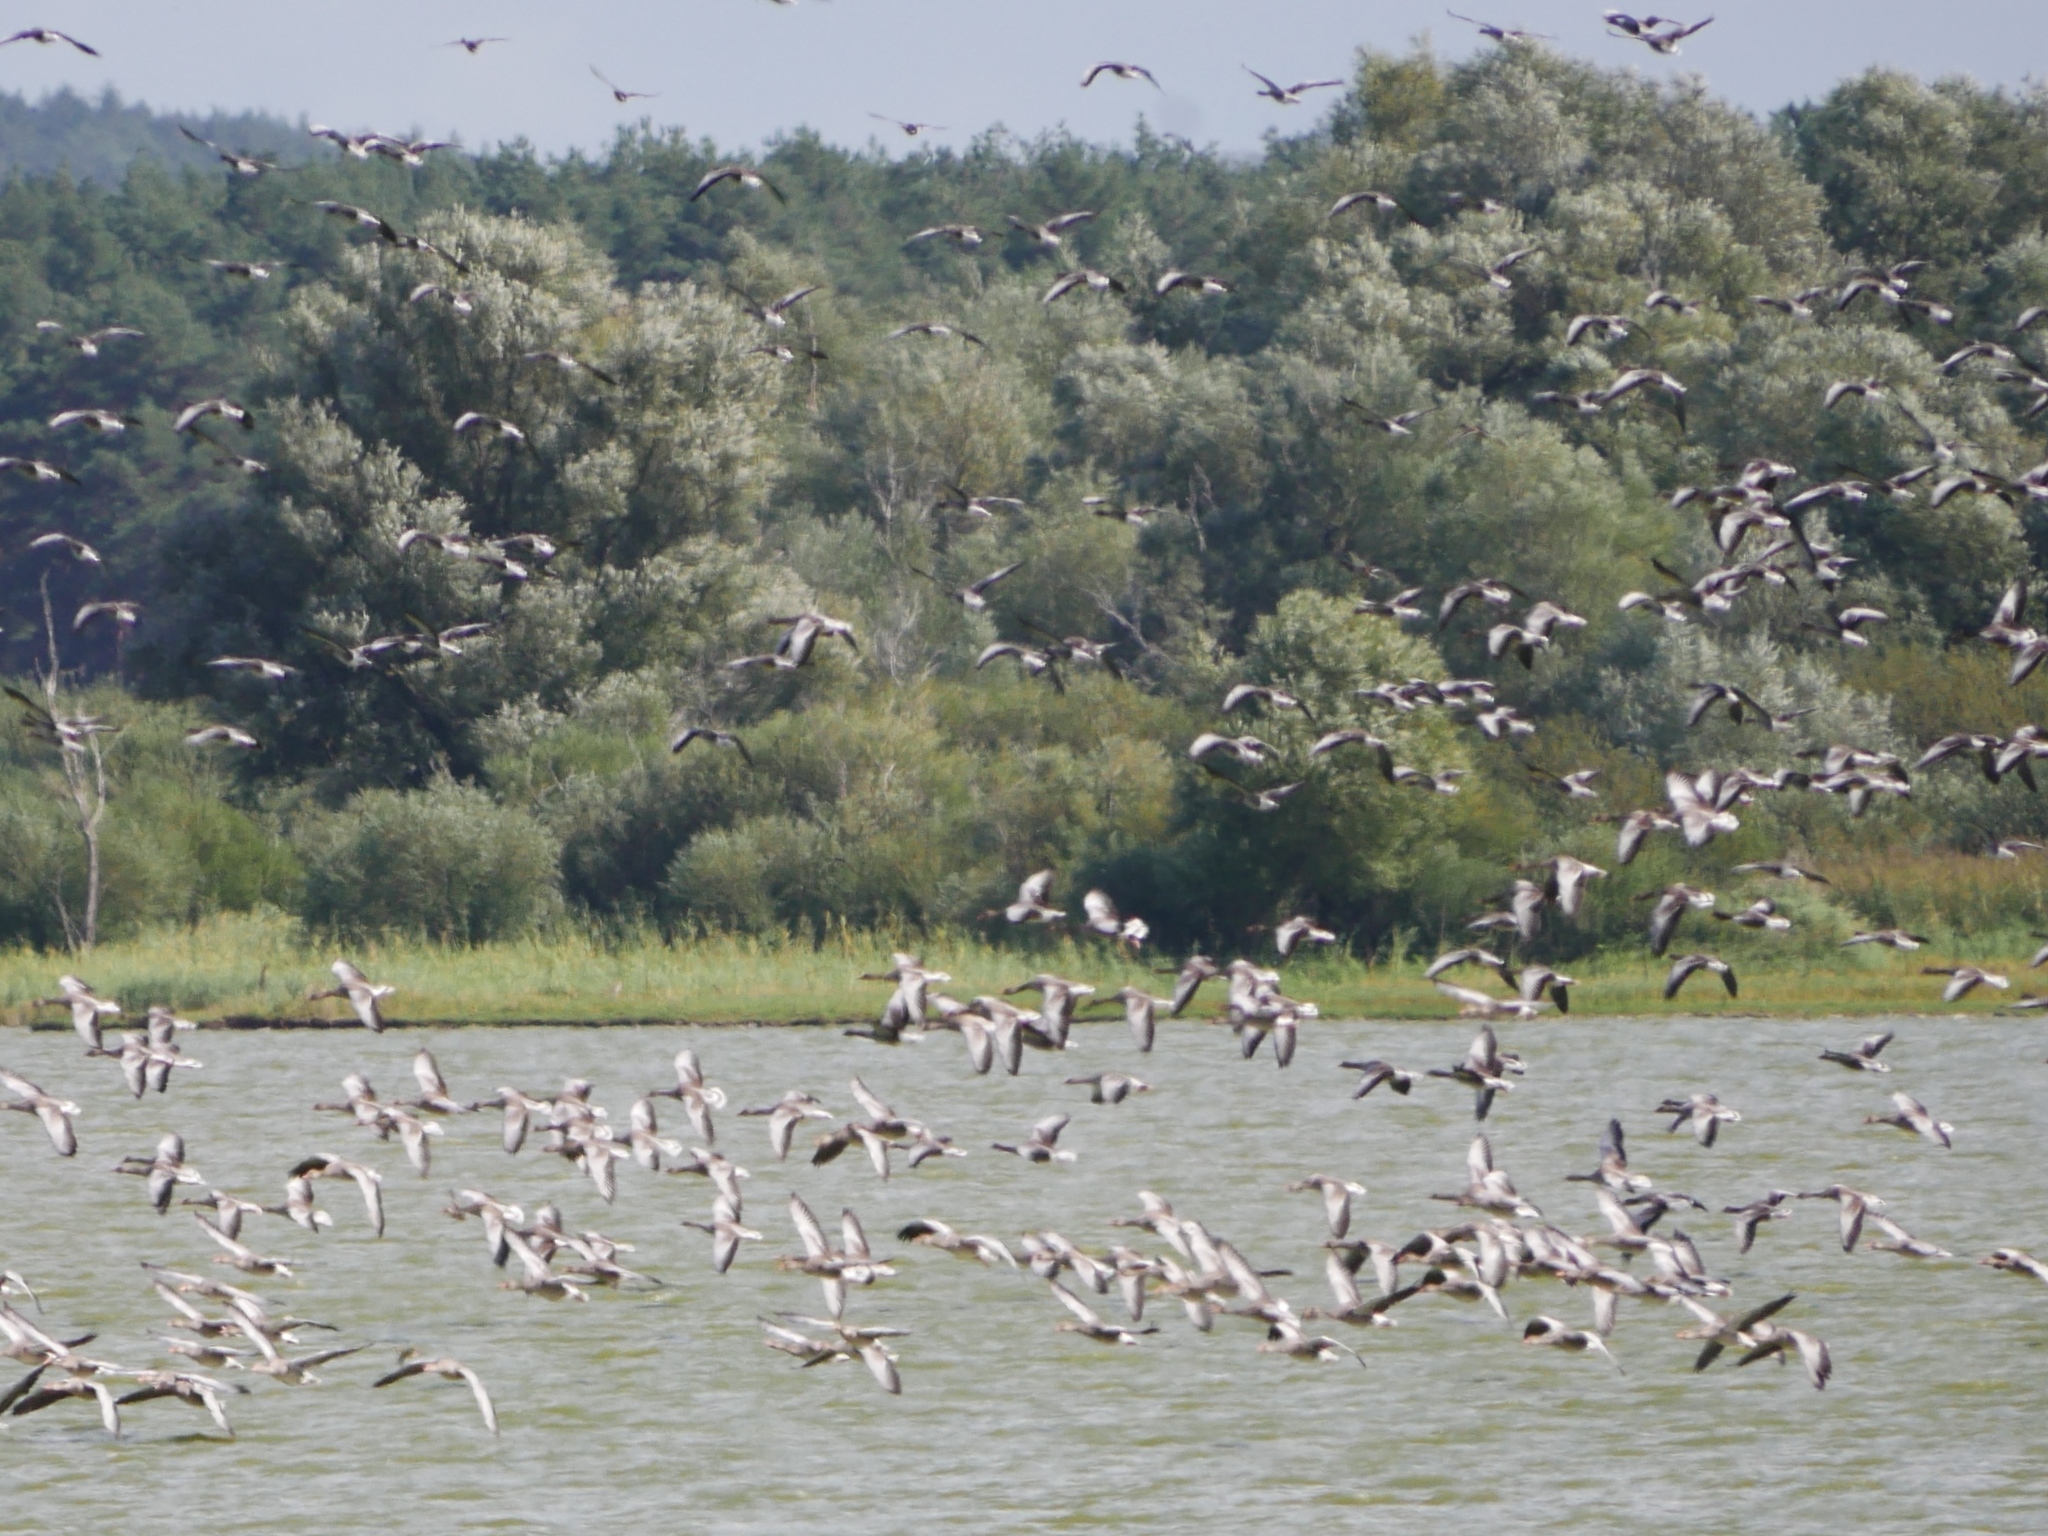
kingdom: Animalia
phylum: Chordata
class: Aves
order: Anseriformes
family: Anatidae
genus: Anser
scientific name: Anser anser
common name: Greylag goose
